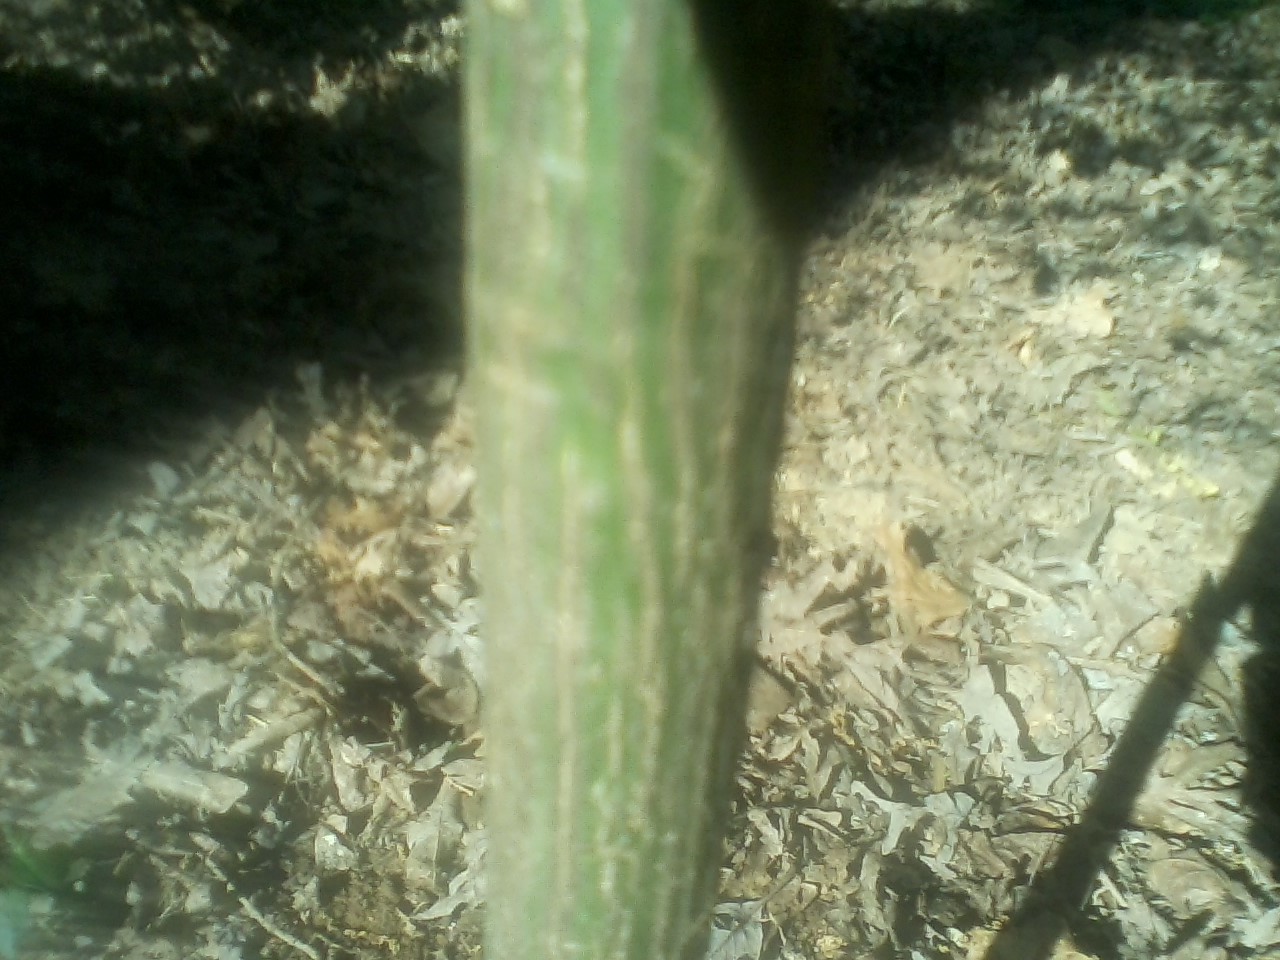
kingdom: Plantae
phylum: Tracheophyta
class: Magnoliopsida
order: Celastrales
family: Celastraceae
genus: Euonymus
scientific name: Euonymus americanus
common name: Bursting-heart
